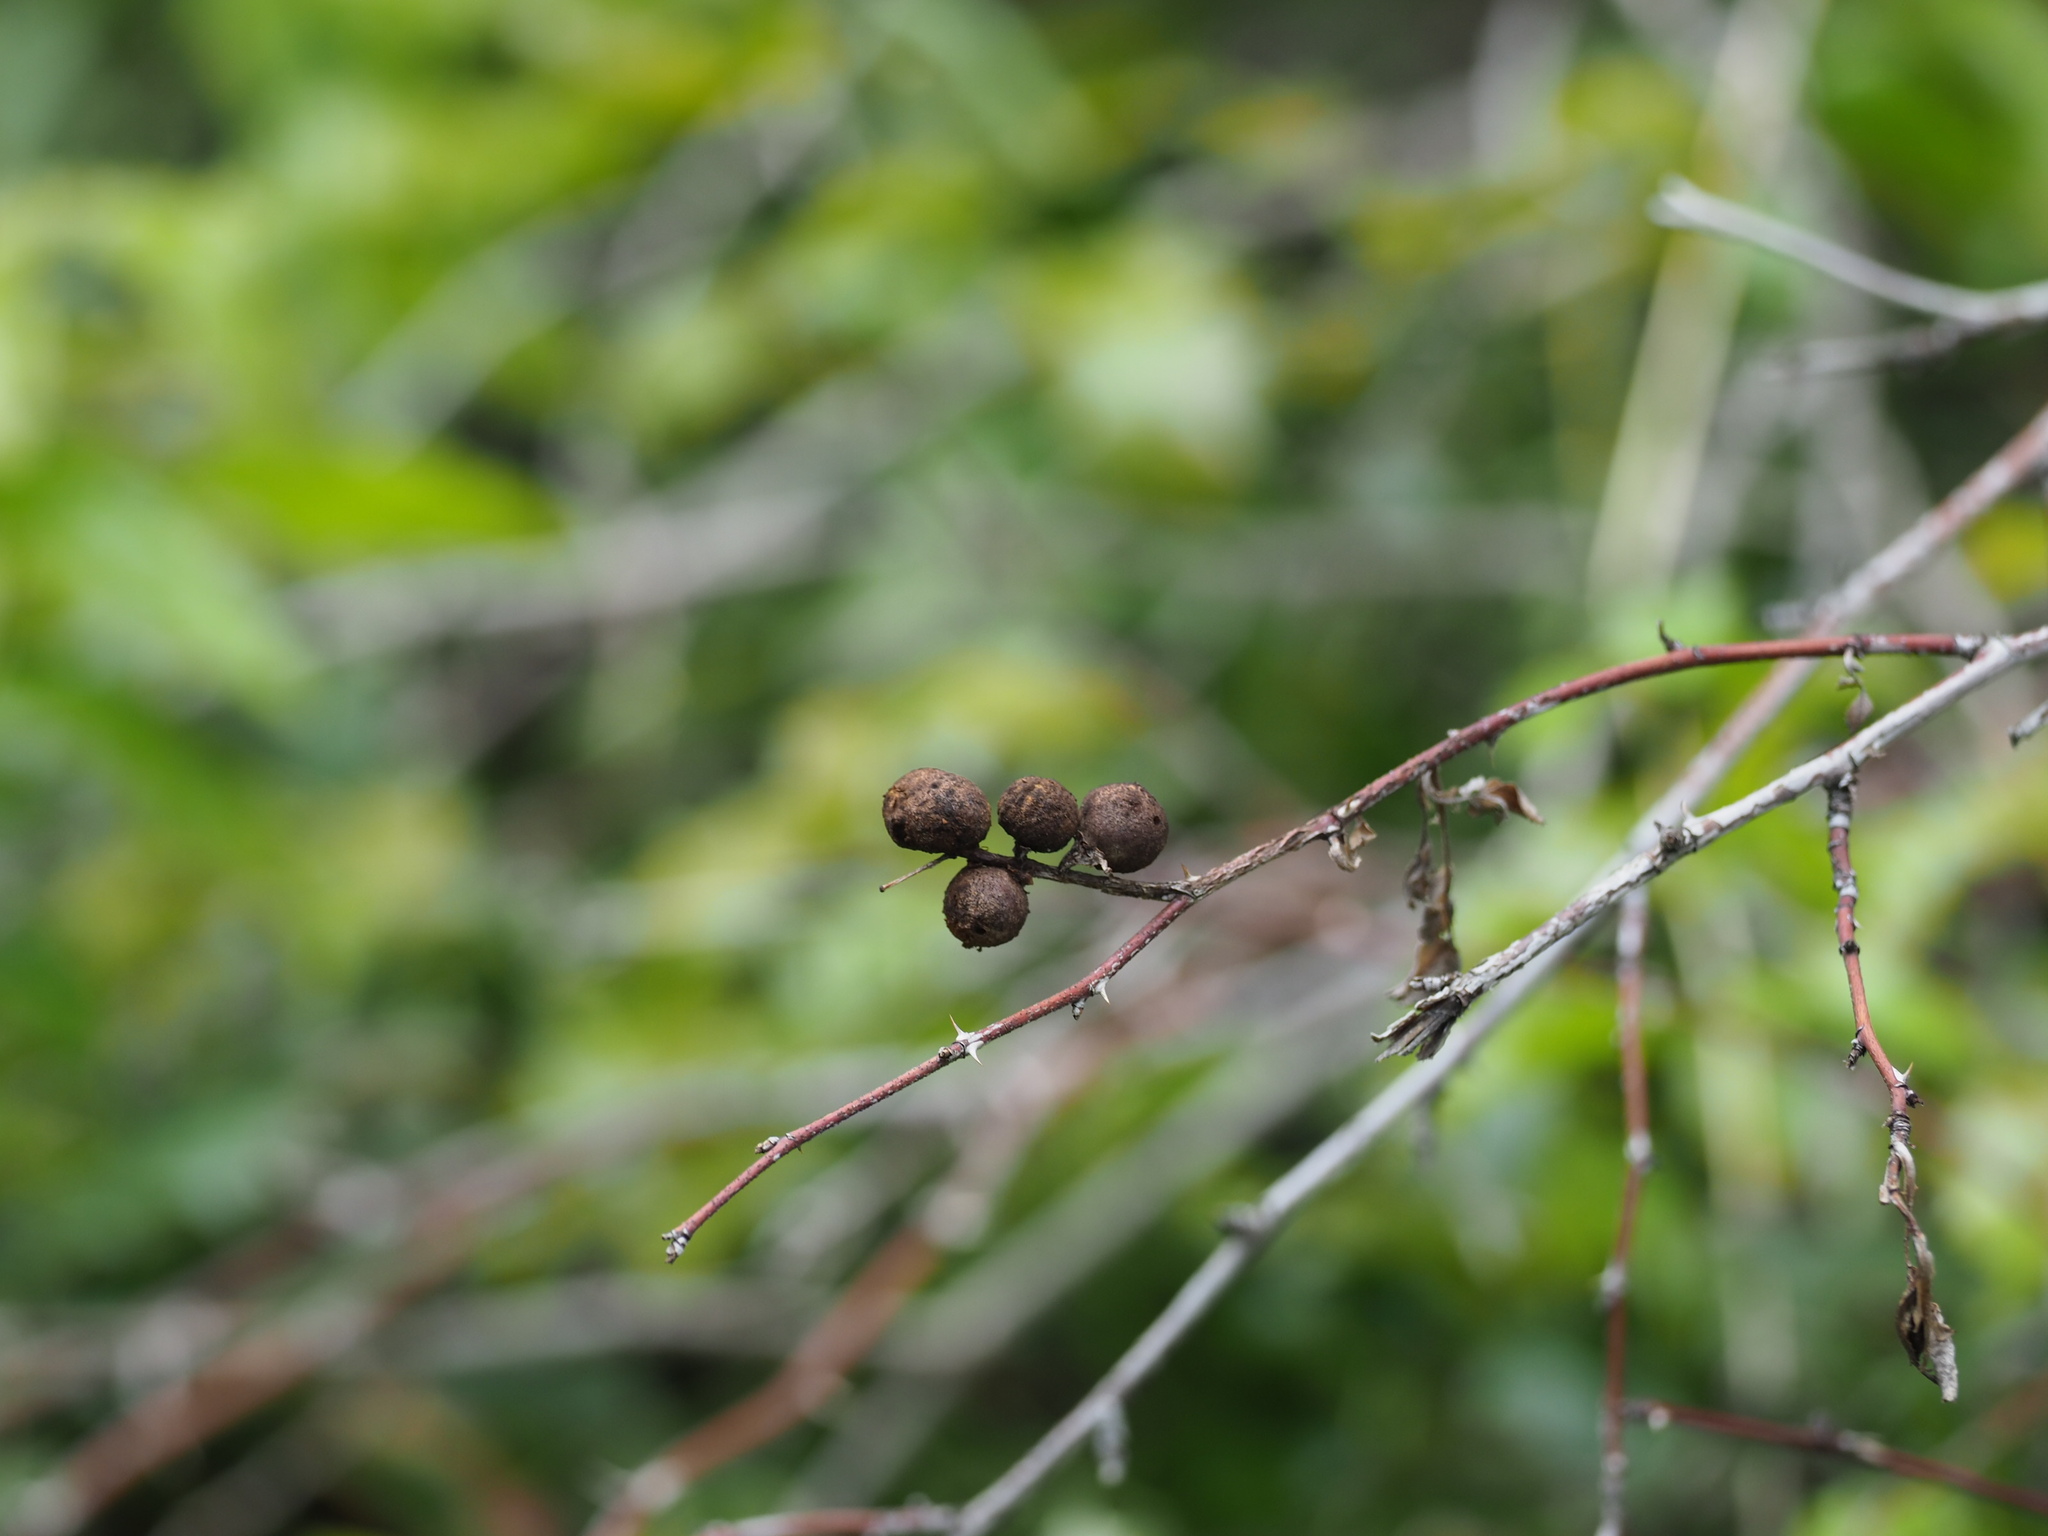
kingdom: Animalia
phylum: Arthropoda
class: Insecta
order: Hymenoptera
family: Cynipidae
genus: Diplolepis
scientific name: Diplolepis variabilis
